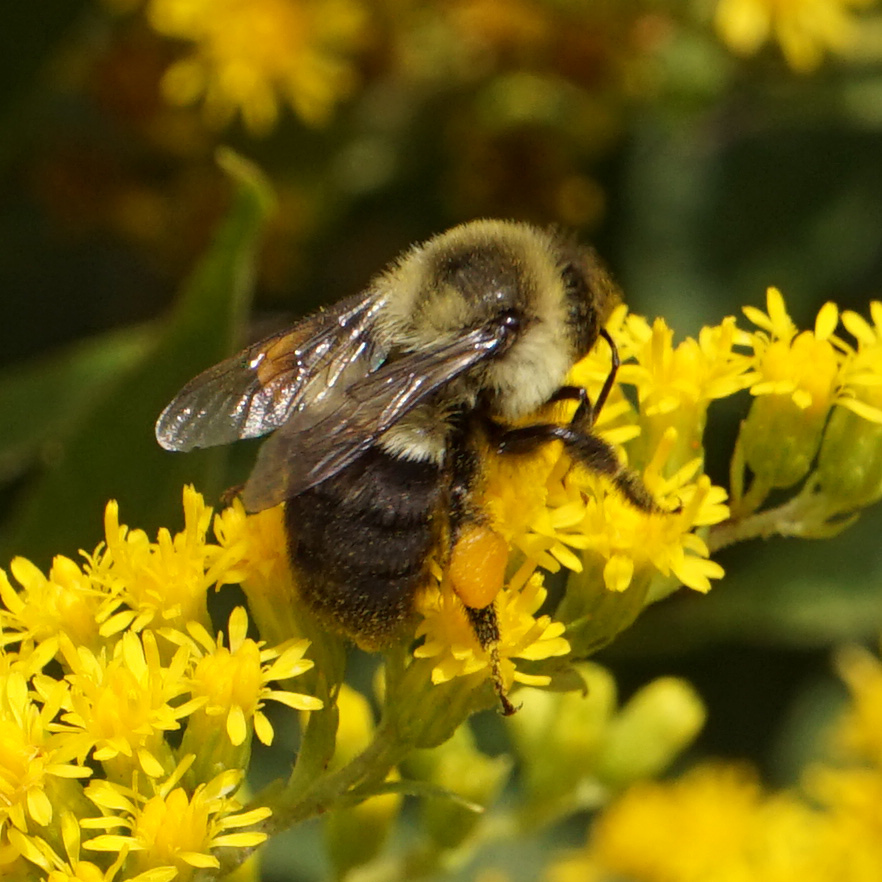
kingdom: Animalia
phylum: Arthropoda
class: Insecta
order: Hymenoptera
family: Apidae
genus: Bombus
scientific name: Bombus impatiens
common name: Common eastern bumble bee
